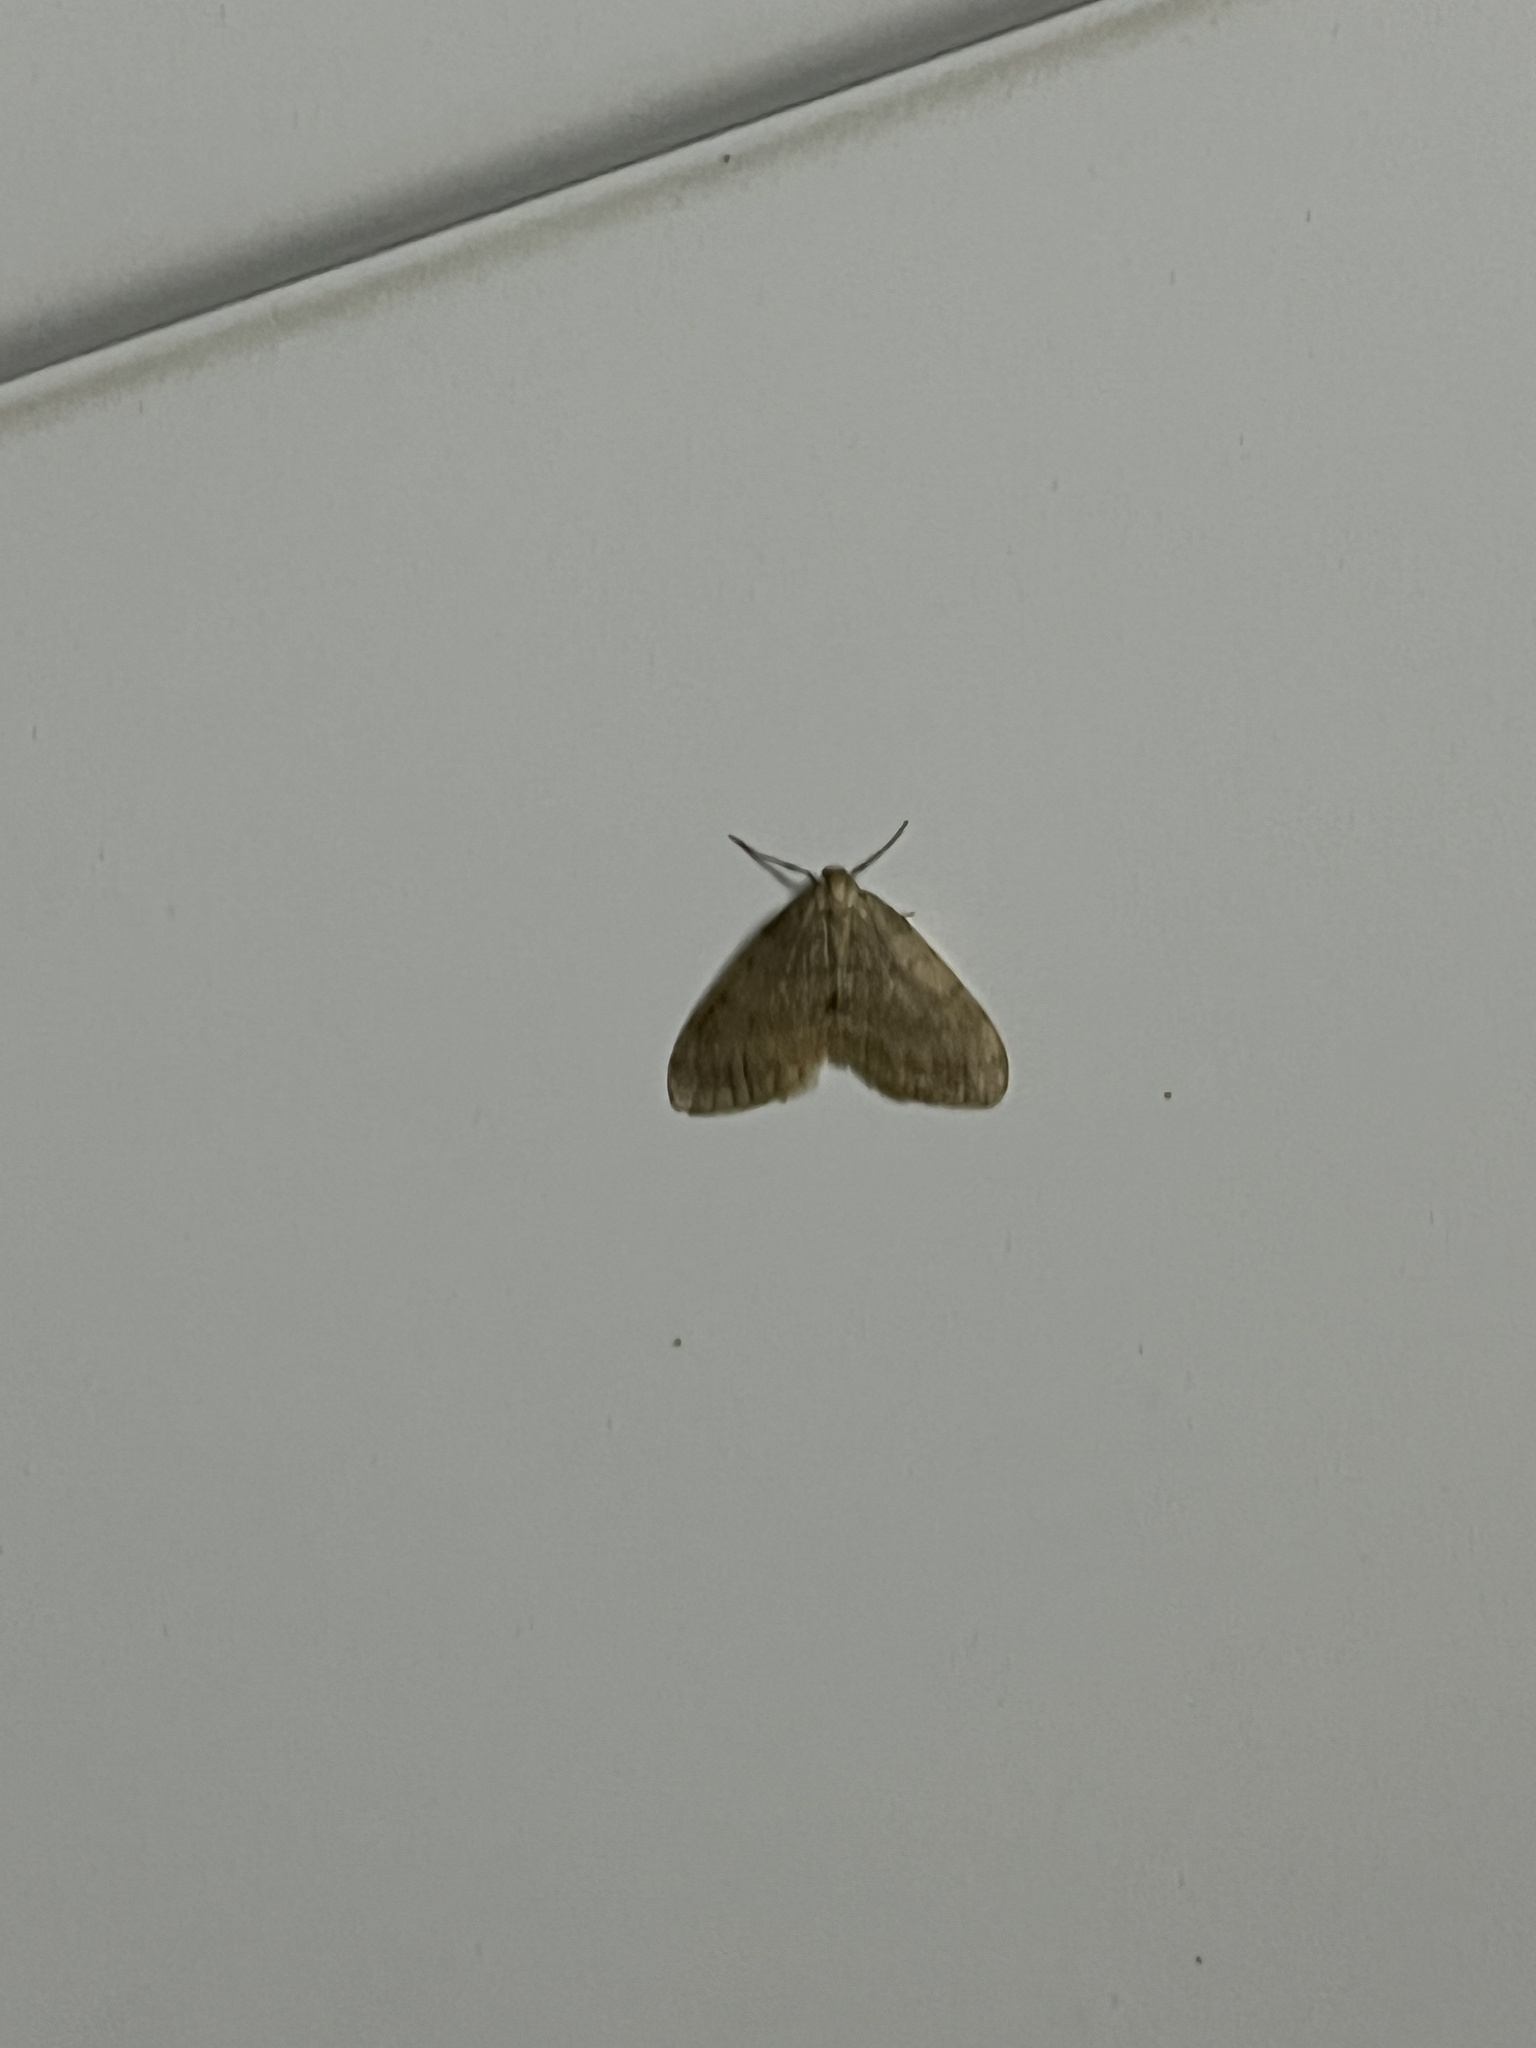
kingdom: Animalia
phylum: Arthropoda
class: Insecta
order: Lepidoptera
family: Geometridae
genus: Operophtera
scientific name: Operophtera brumata
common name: Winter moth
